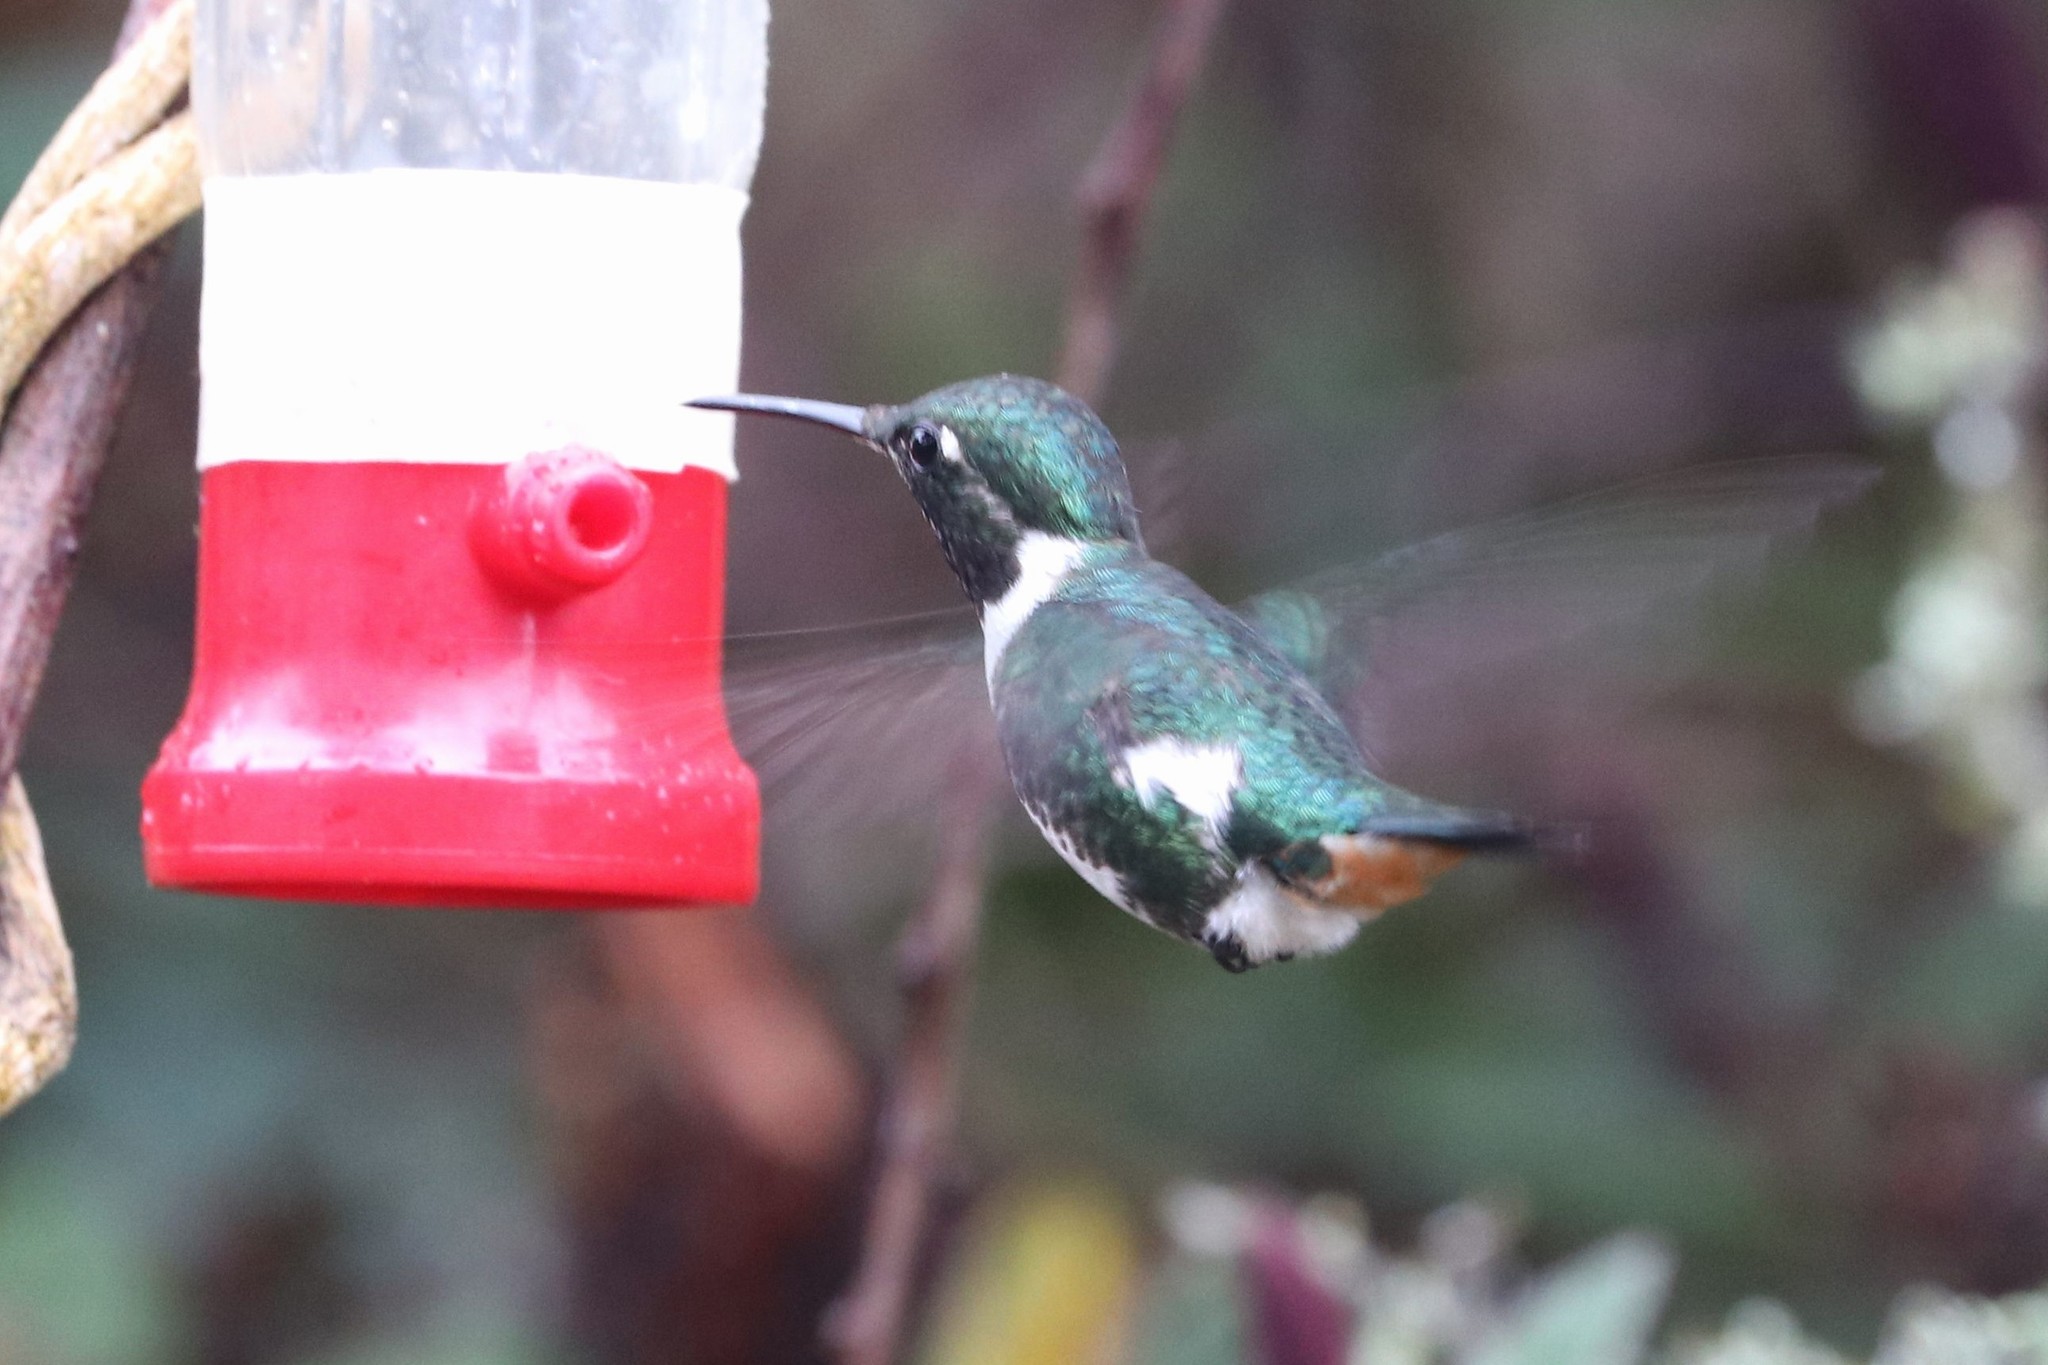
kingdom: Animalia
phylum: Chordata
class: Aves
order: Apodiformes
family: Trochilidae
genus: Chaetocercus
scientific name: Chaetocercus mulsant
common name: White-bellied woodstar
